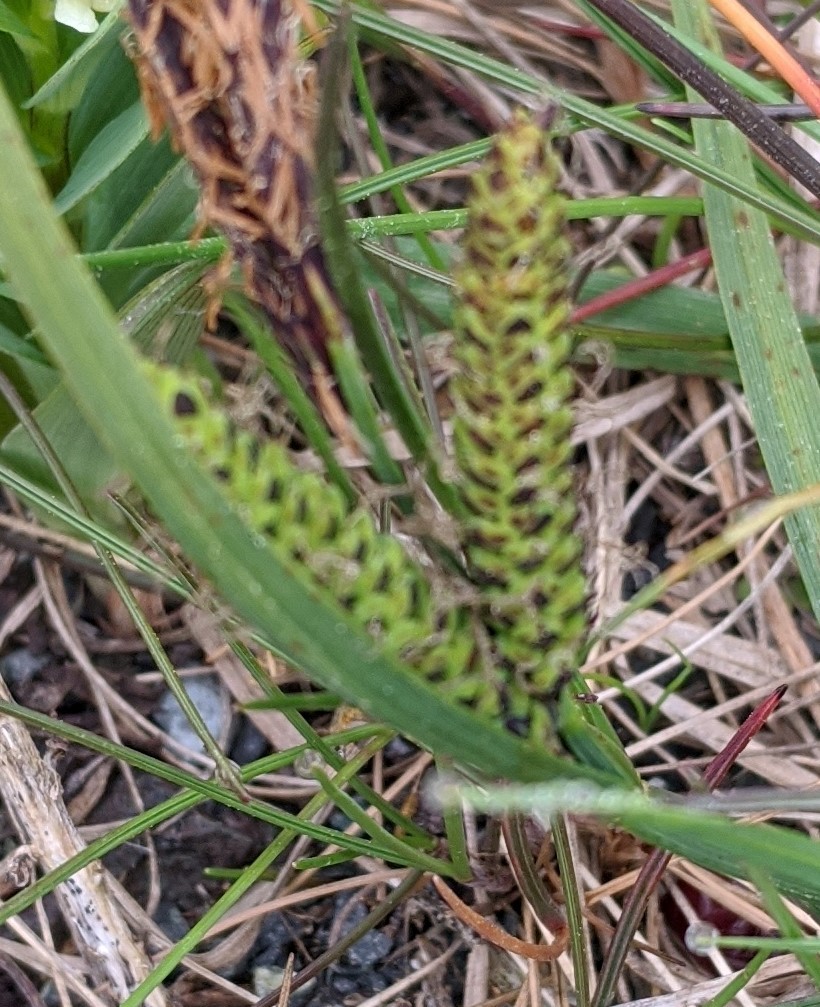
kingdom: Plantae
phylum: Tracheophyta
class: Liliopsida
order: Poales
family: Cyperaceae
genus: Carex
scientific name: Carex nigra
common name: Common sedge
